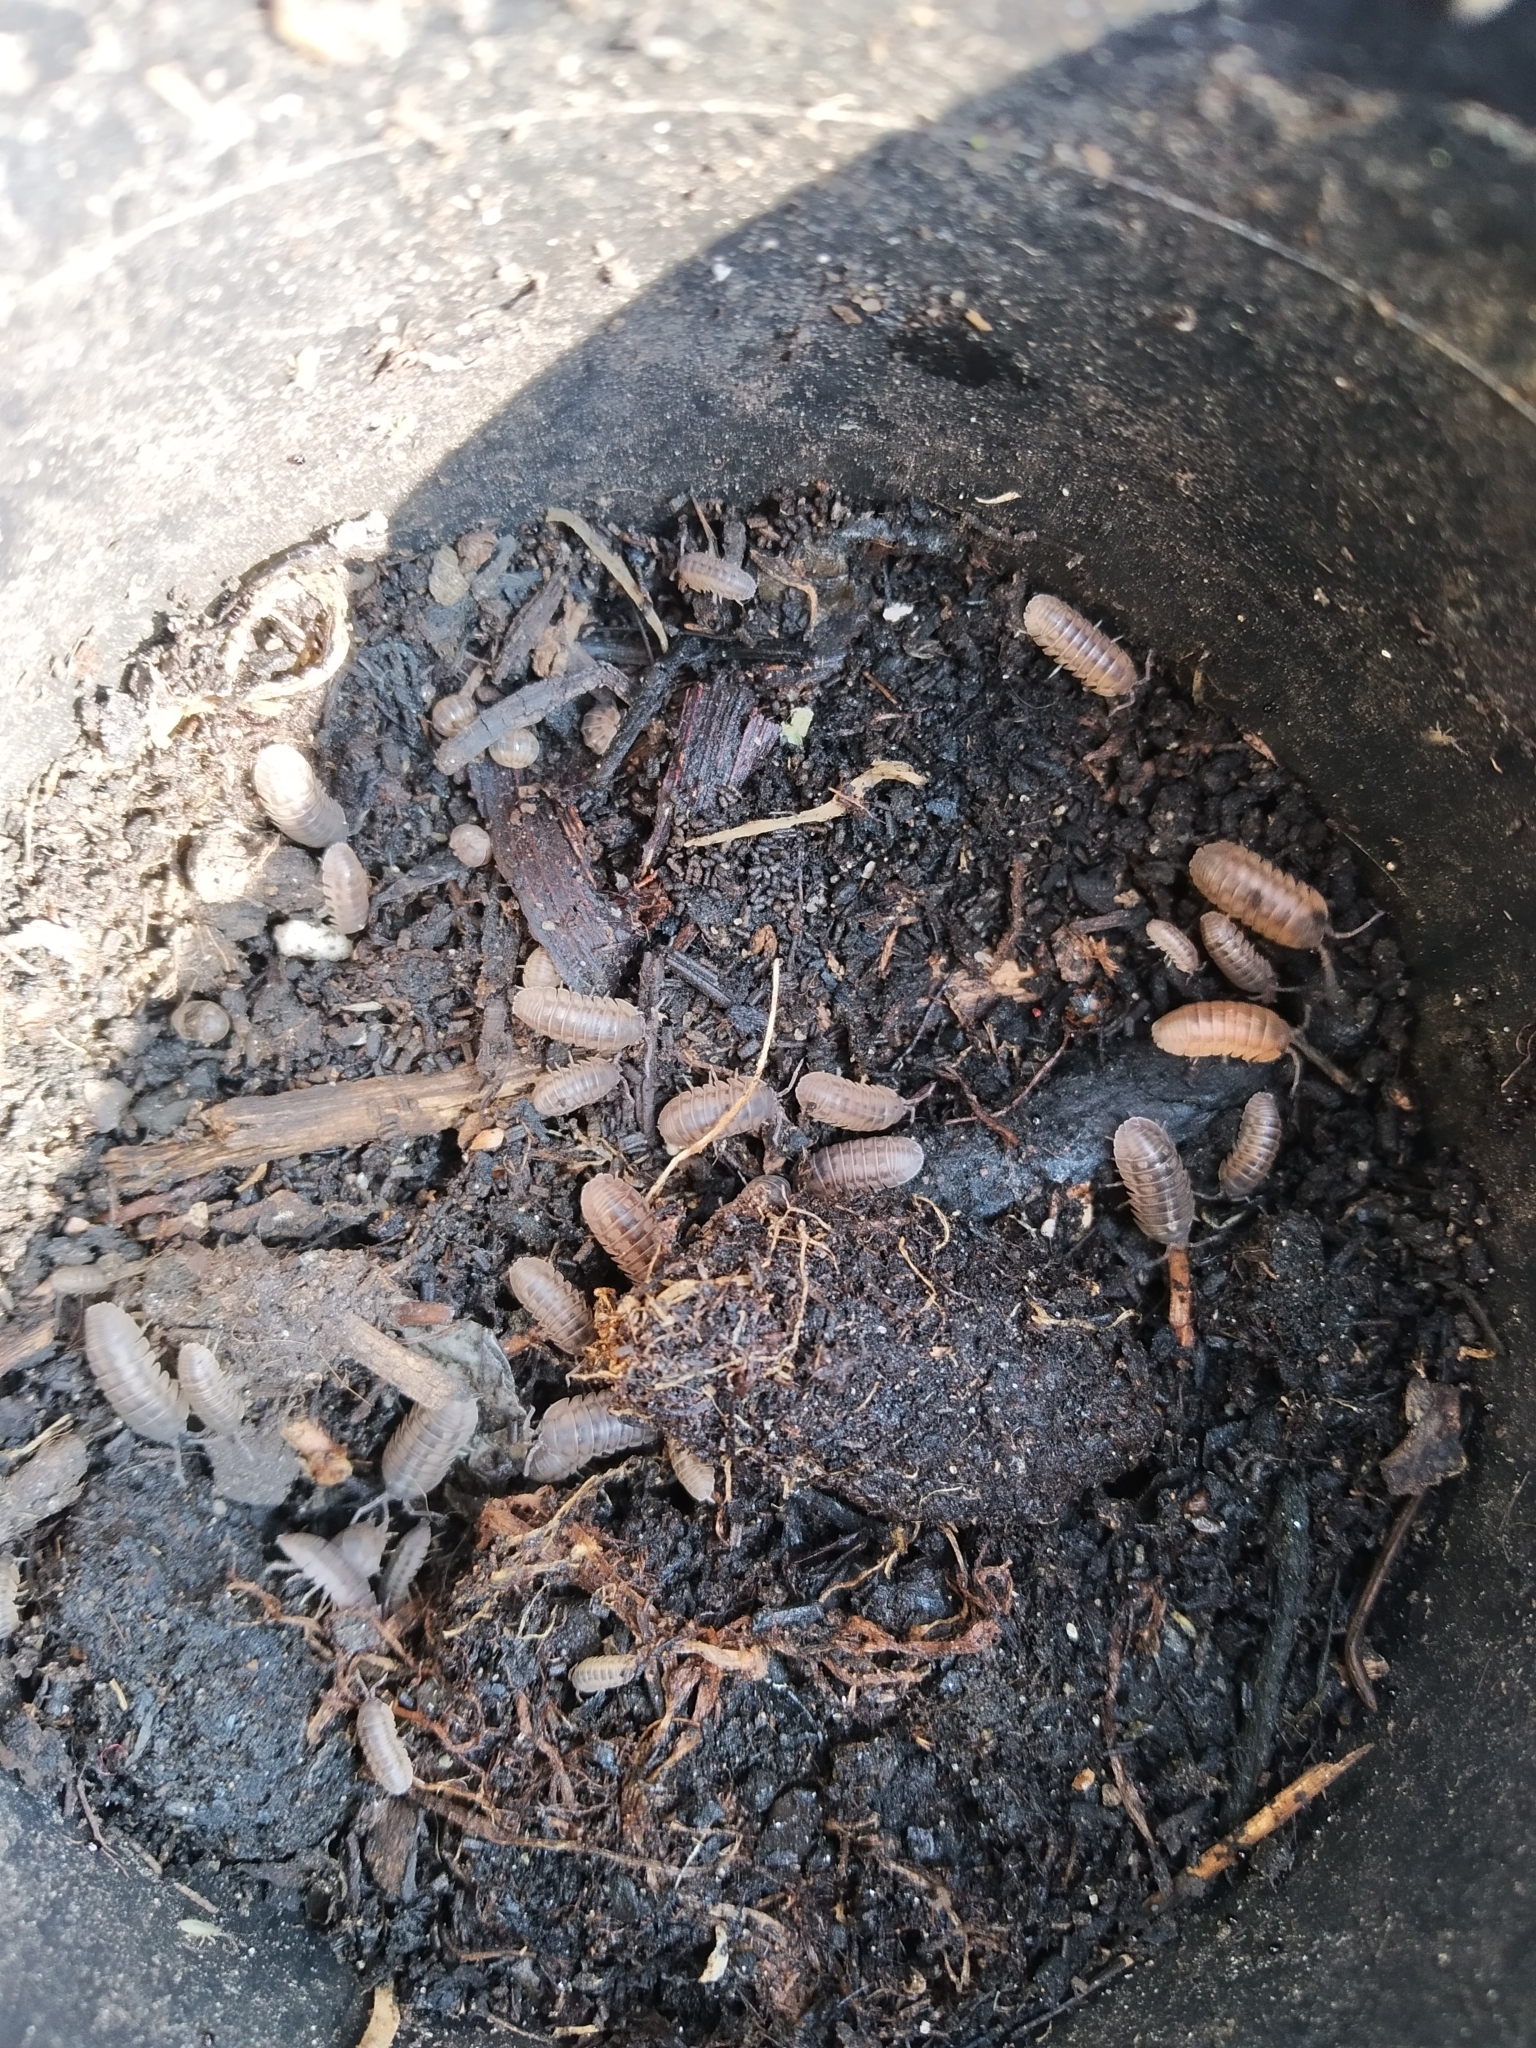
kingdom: Animalia
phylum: Arthropoda
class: Malacostraca
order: Isopoda
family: Armadillidiidae
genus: Armadillidium
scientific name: Armadillidium nasatum
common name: Isopod
